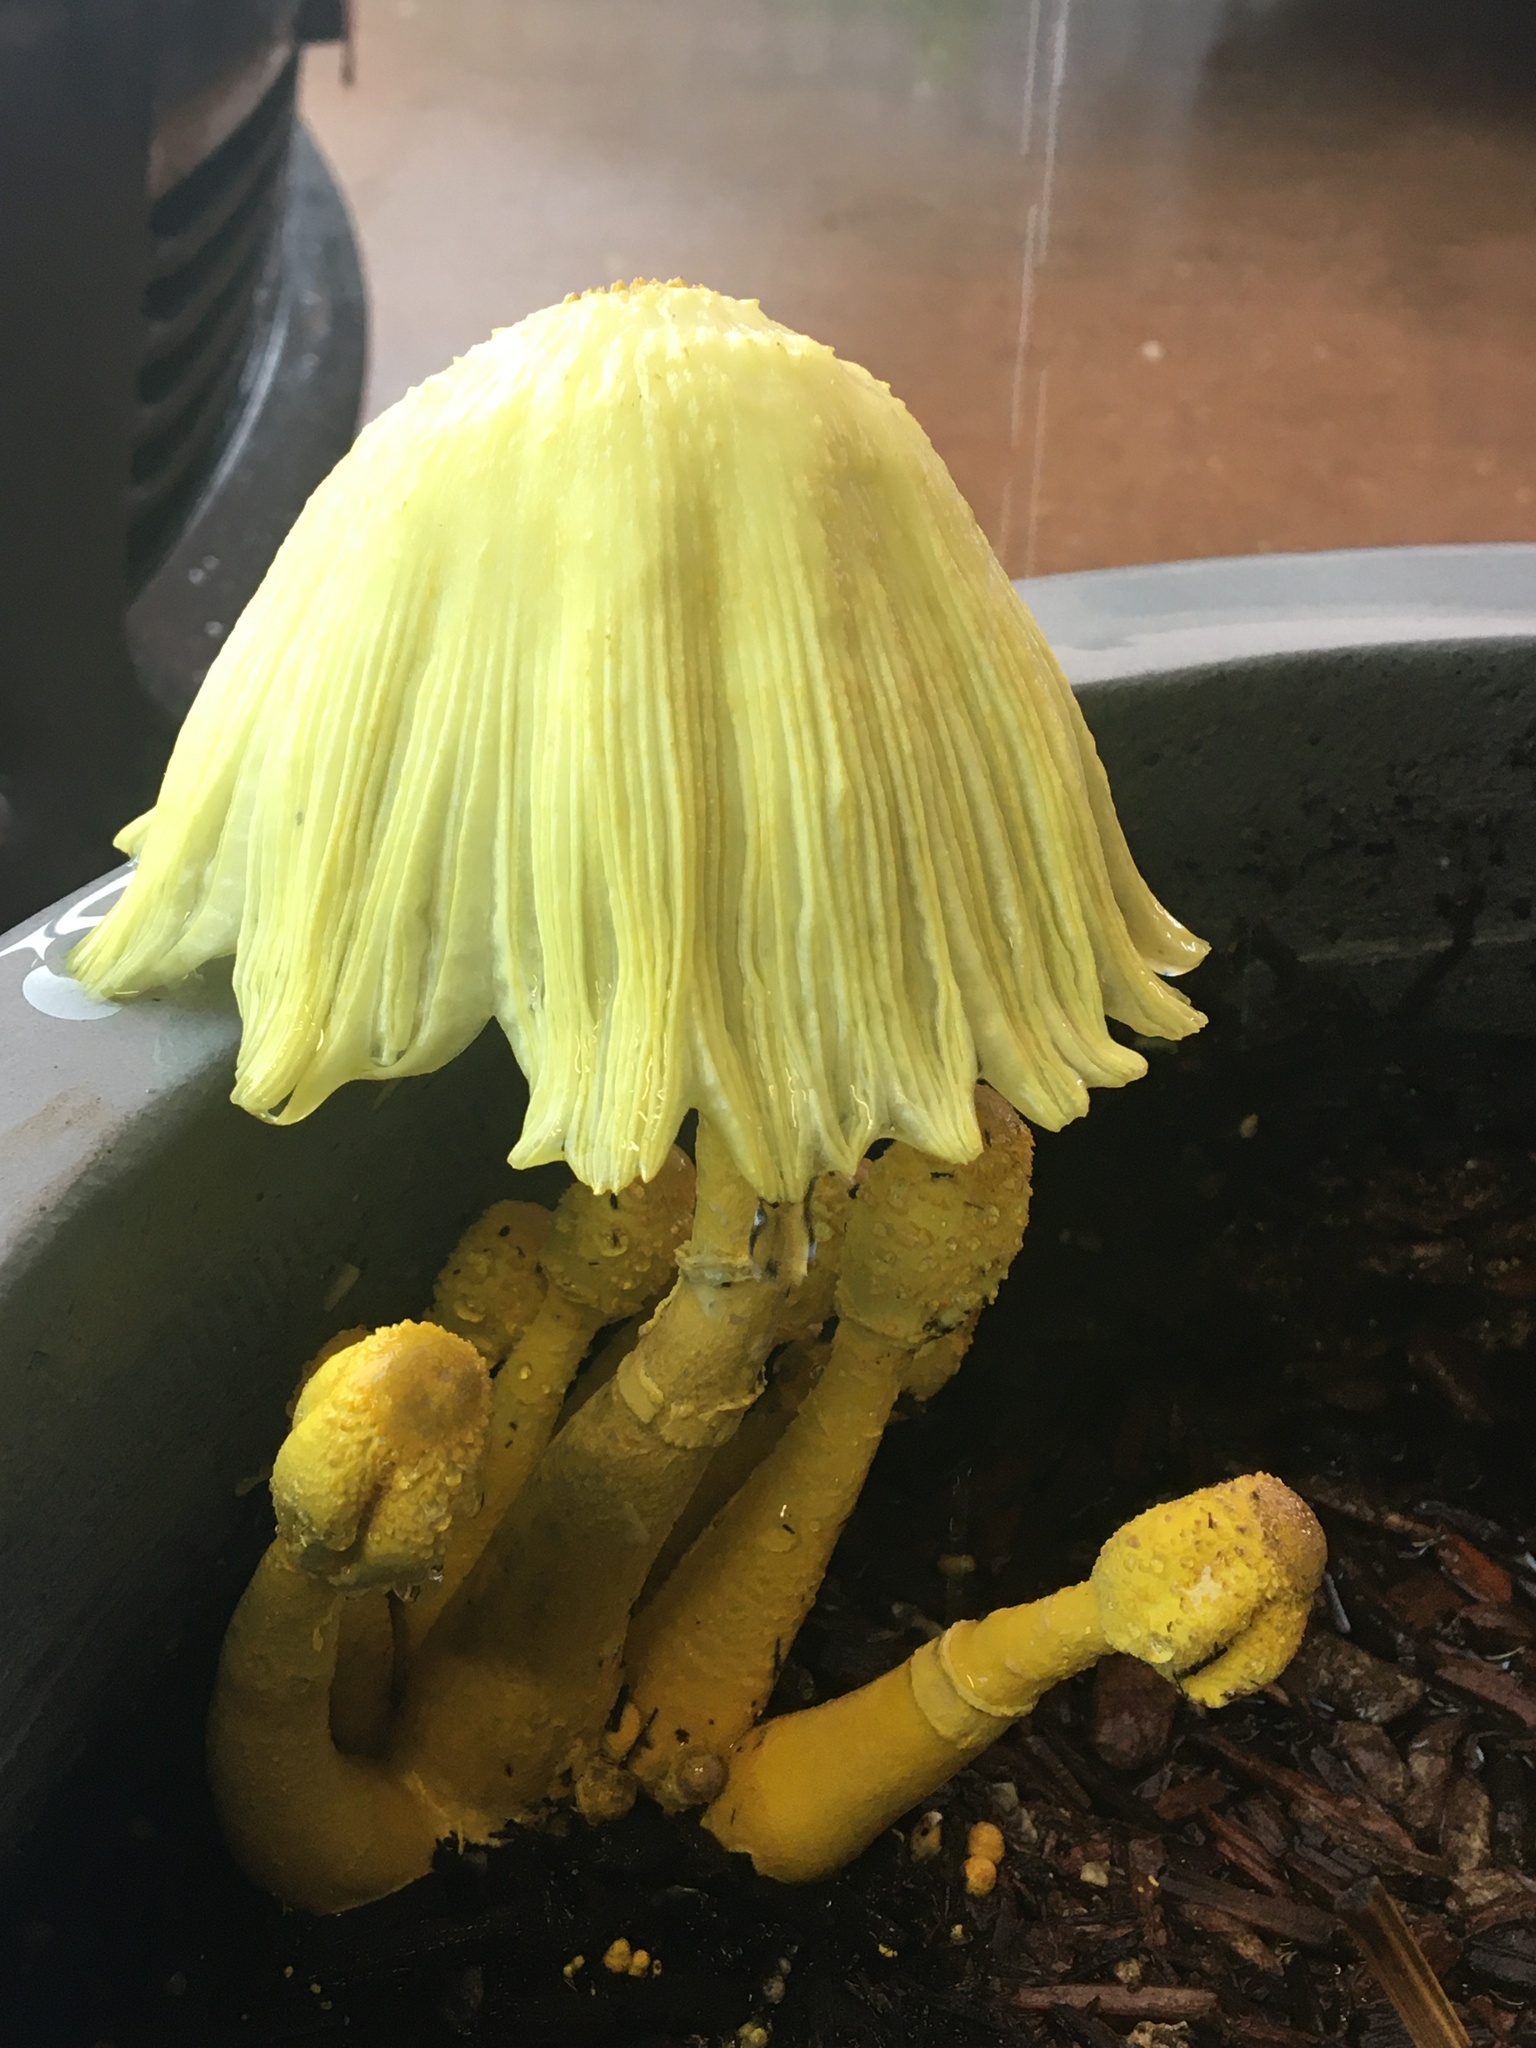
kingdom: Fungi
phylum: Basidiomycota
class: Agaricomycetes
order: Agaricales
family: Agaricaceae
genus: Leucocoprinus
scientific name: Leucocoprinus birnbaumii
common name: Plantpot dapperling
